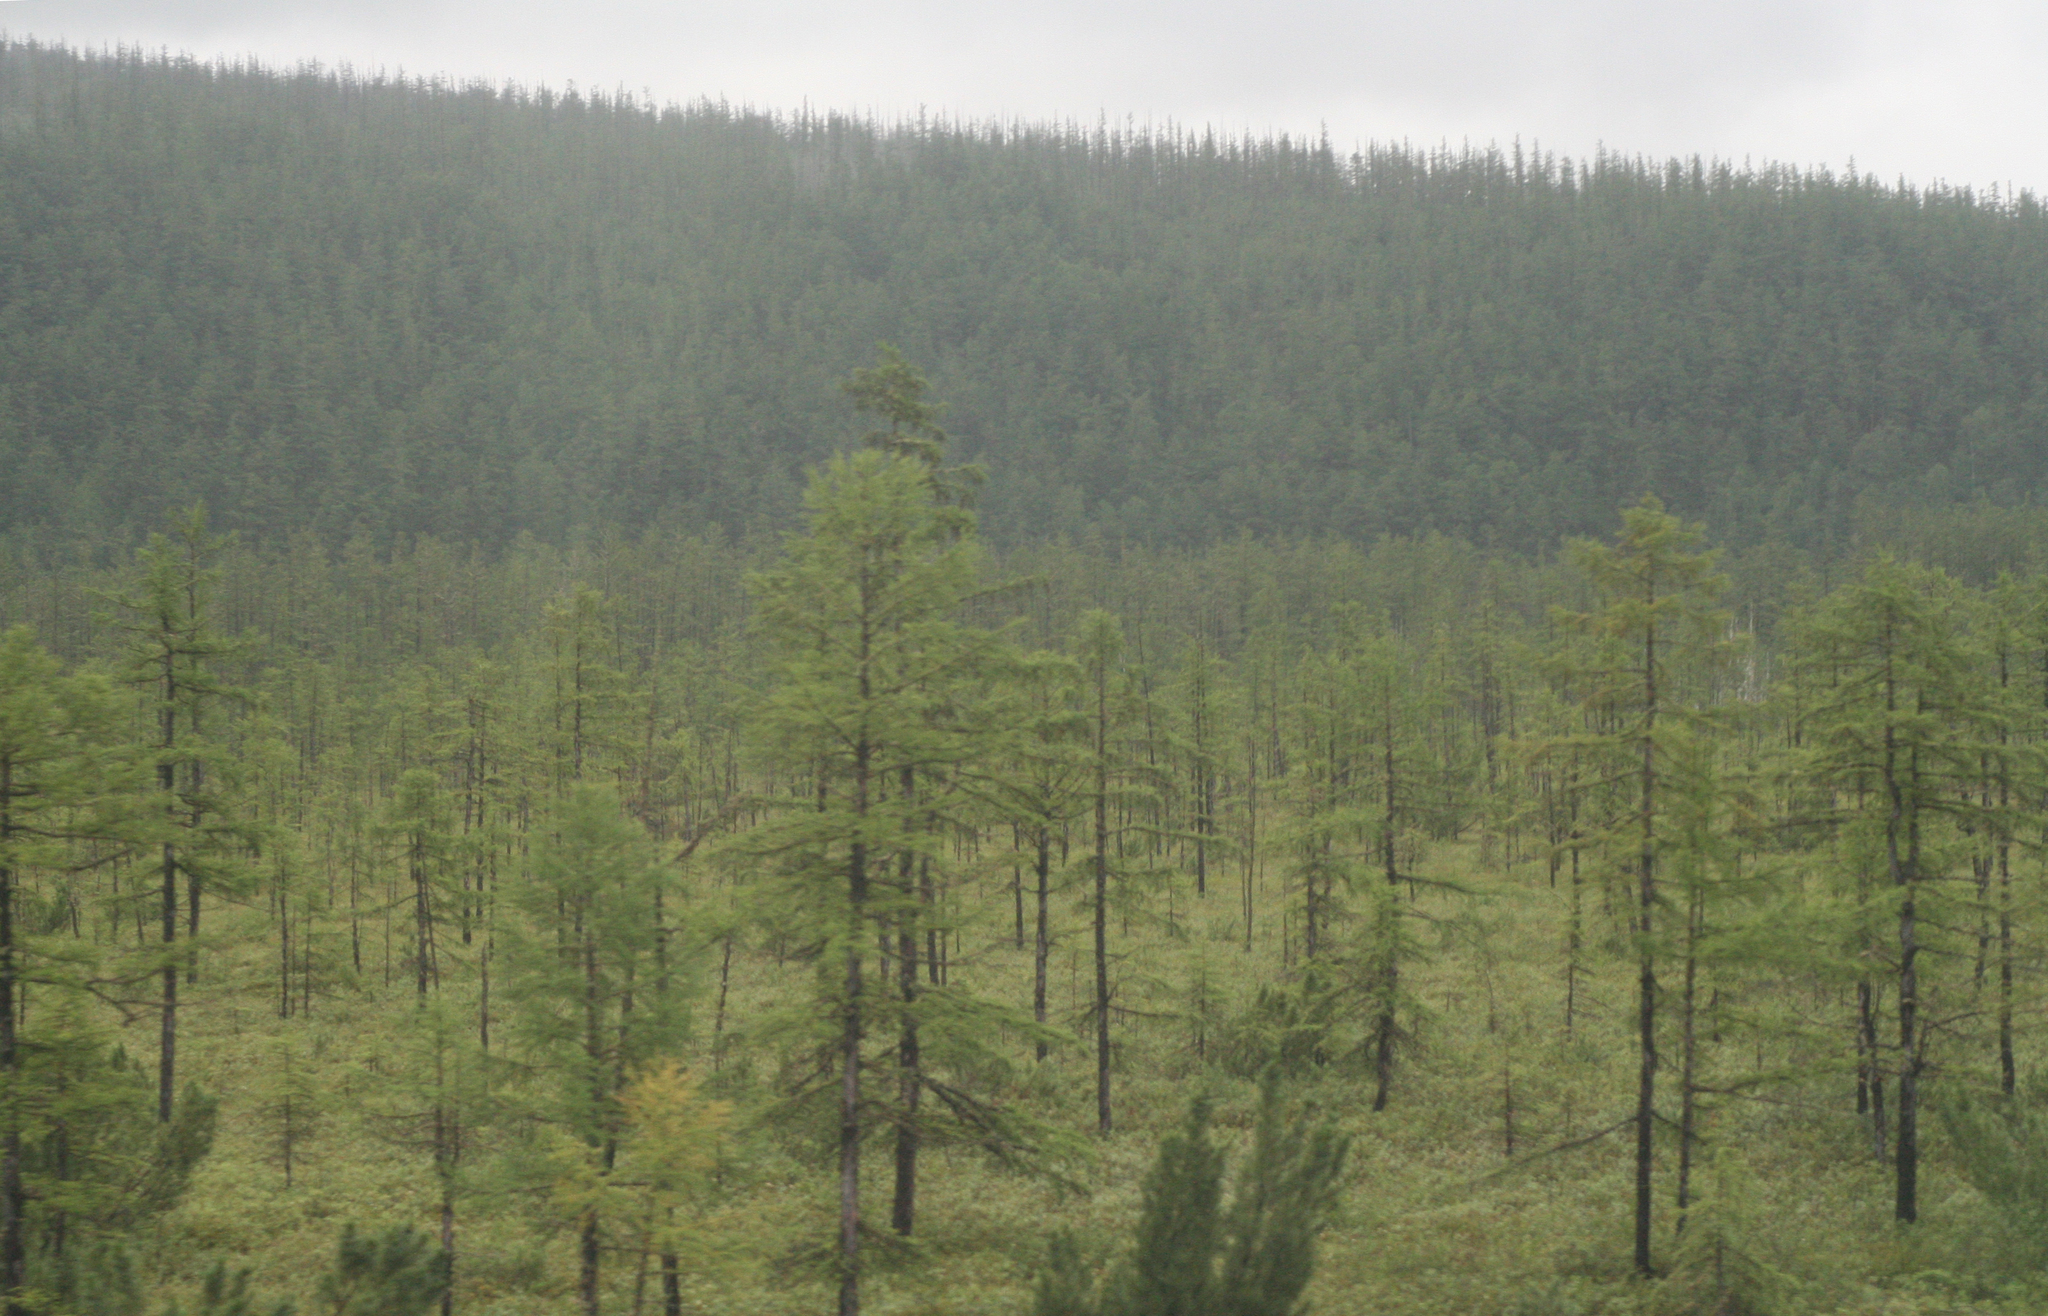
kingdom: Plantae
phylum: Tracheophyta
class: Pinopsida
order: Pinales
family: Pinaceae
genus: Larix
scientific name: Larix gmelinii
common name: Dahurian larch
